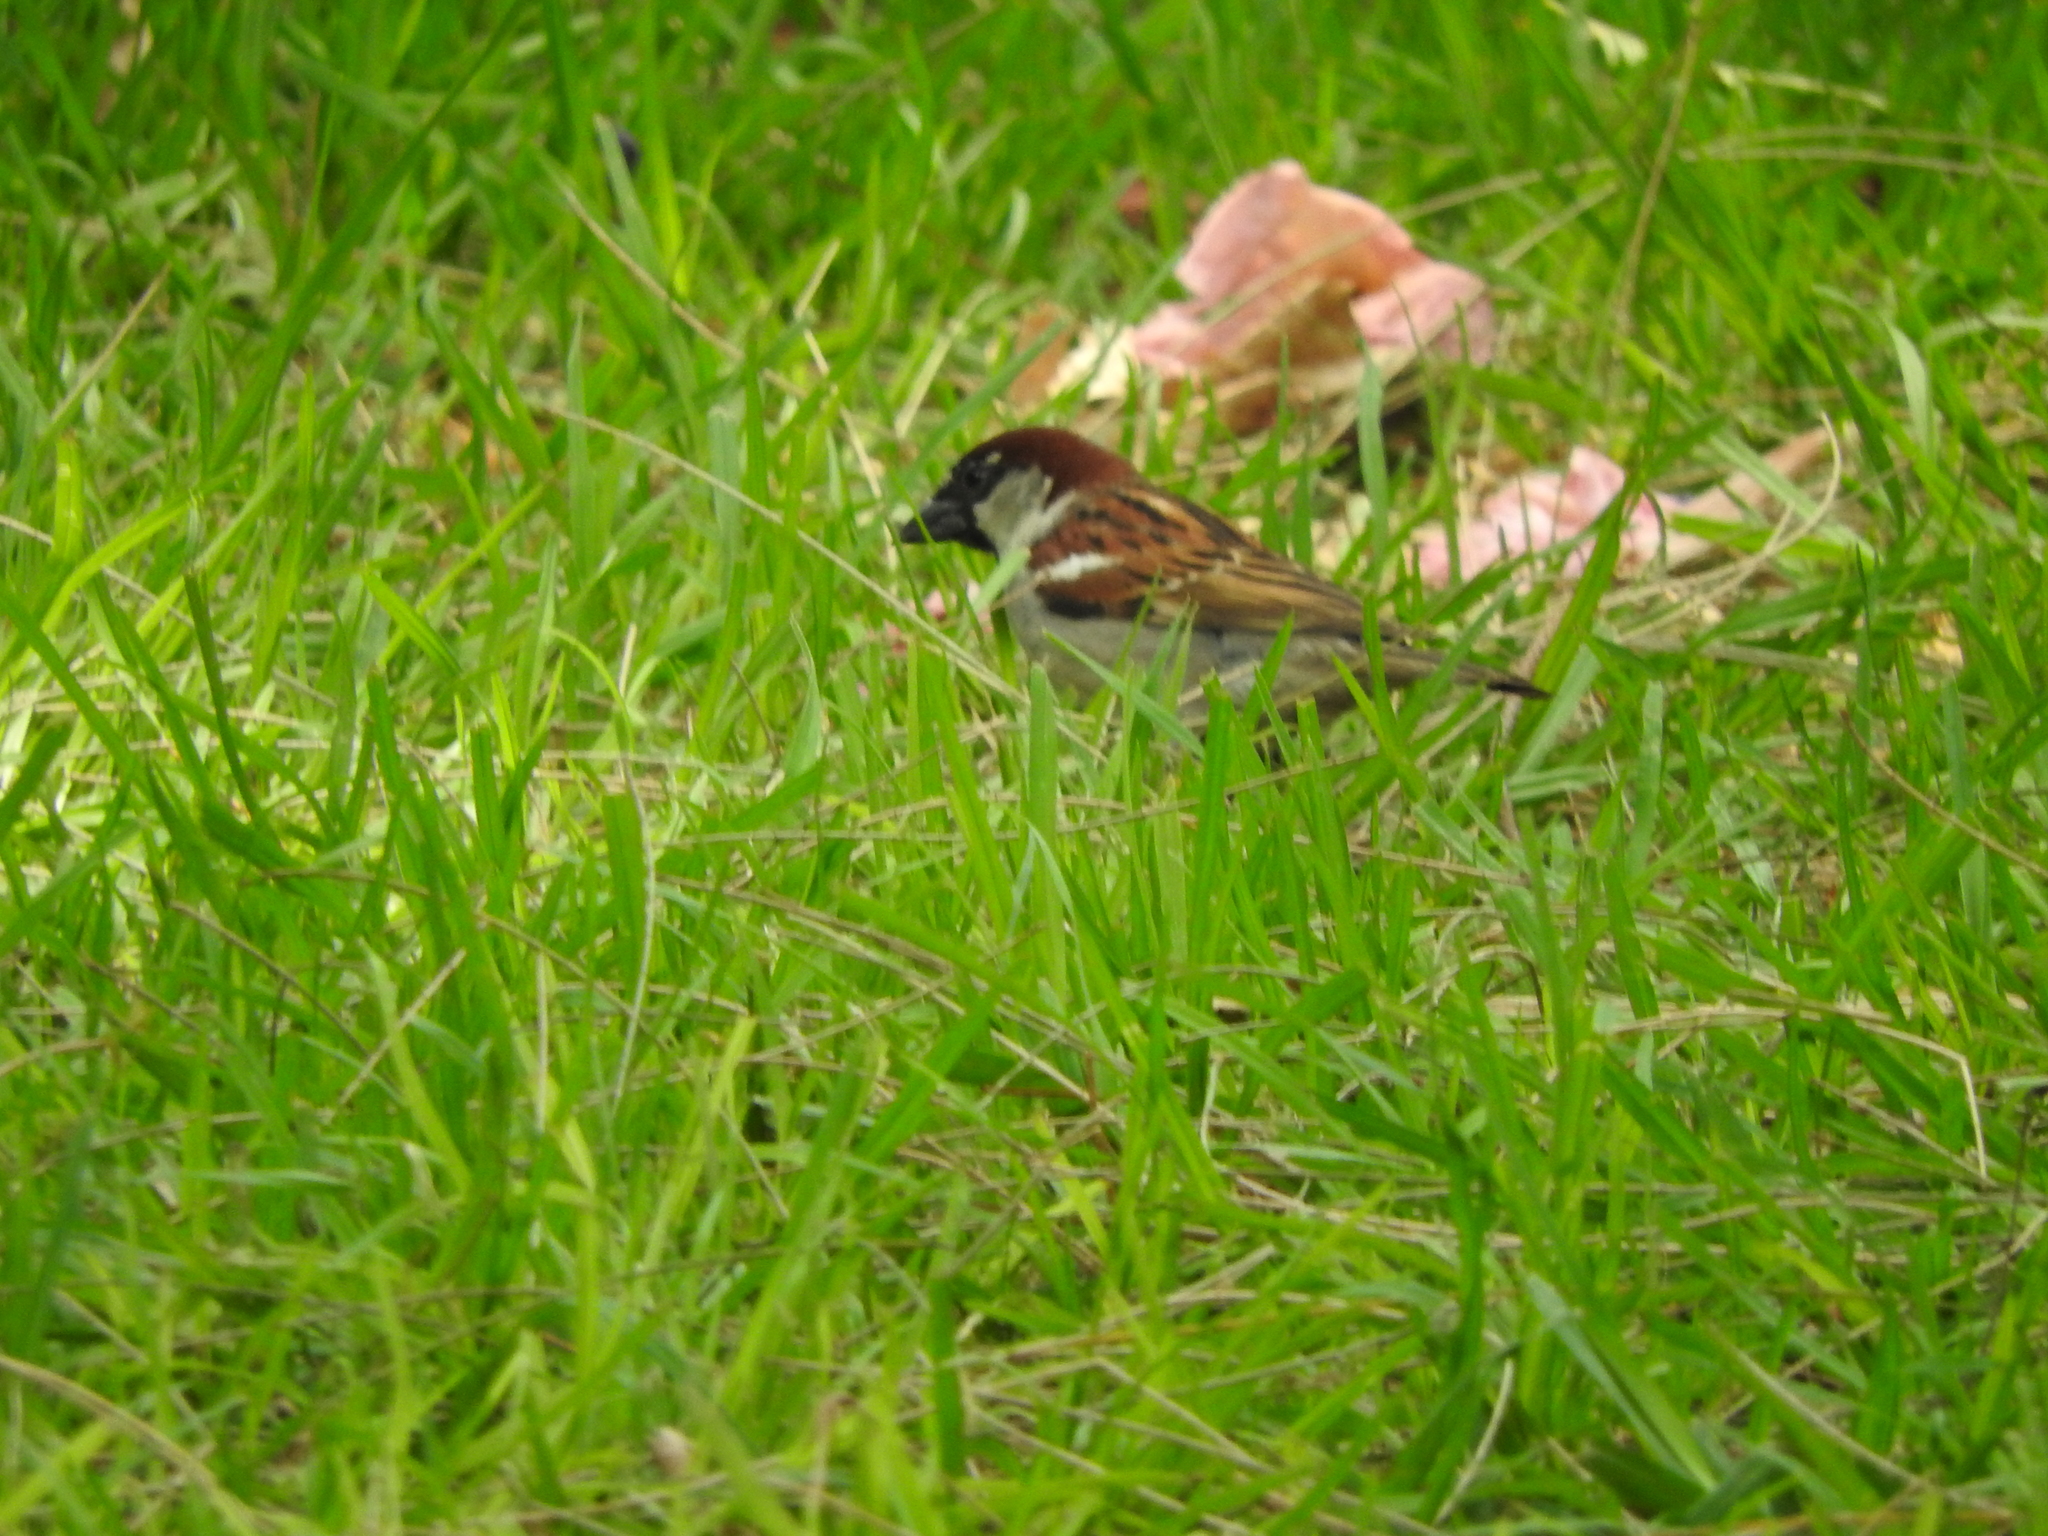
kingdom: Animalia
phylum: Chordata
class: Aves
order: Passeriformes
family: Passeridae
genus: Passer
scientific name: Passer domesticus
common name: House sparrow
